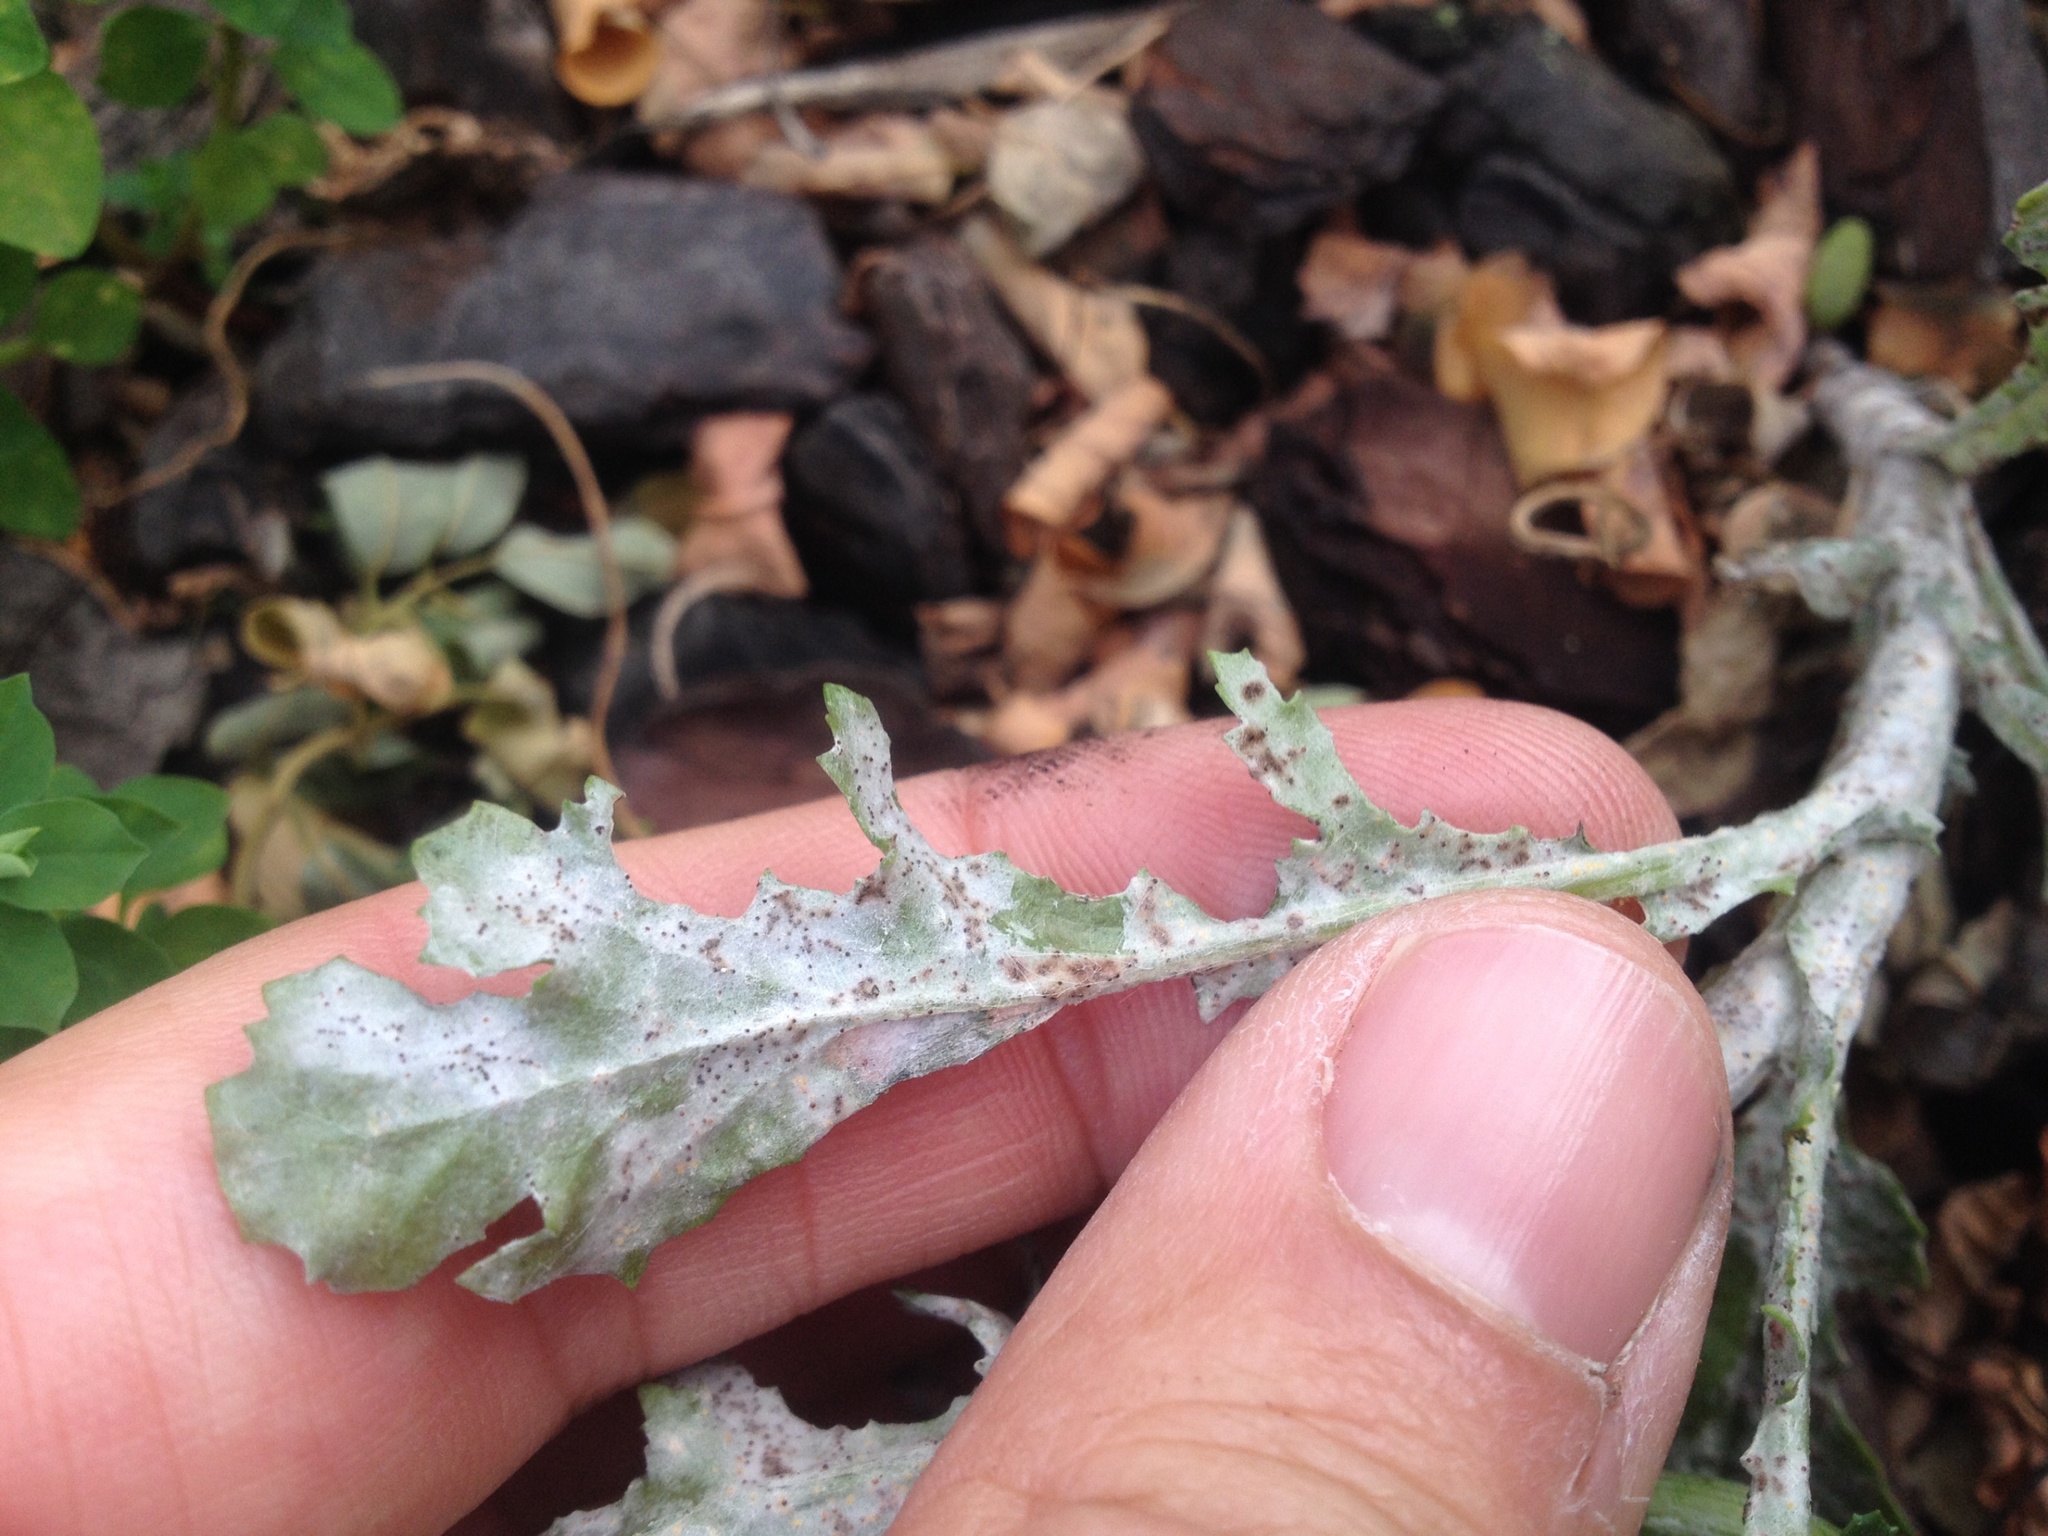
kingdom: Fungi
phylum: Ascomycota
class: Leotiomycetes
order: Helotiales
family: Erysiphaceae
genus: Neoerysiphe
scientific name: Neoerysiphe kerribeeensis
